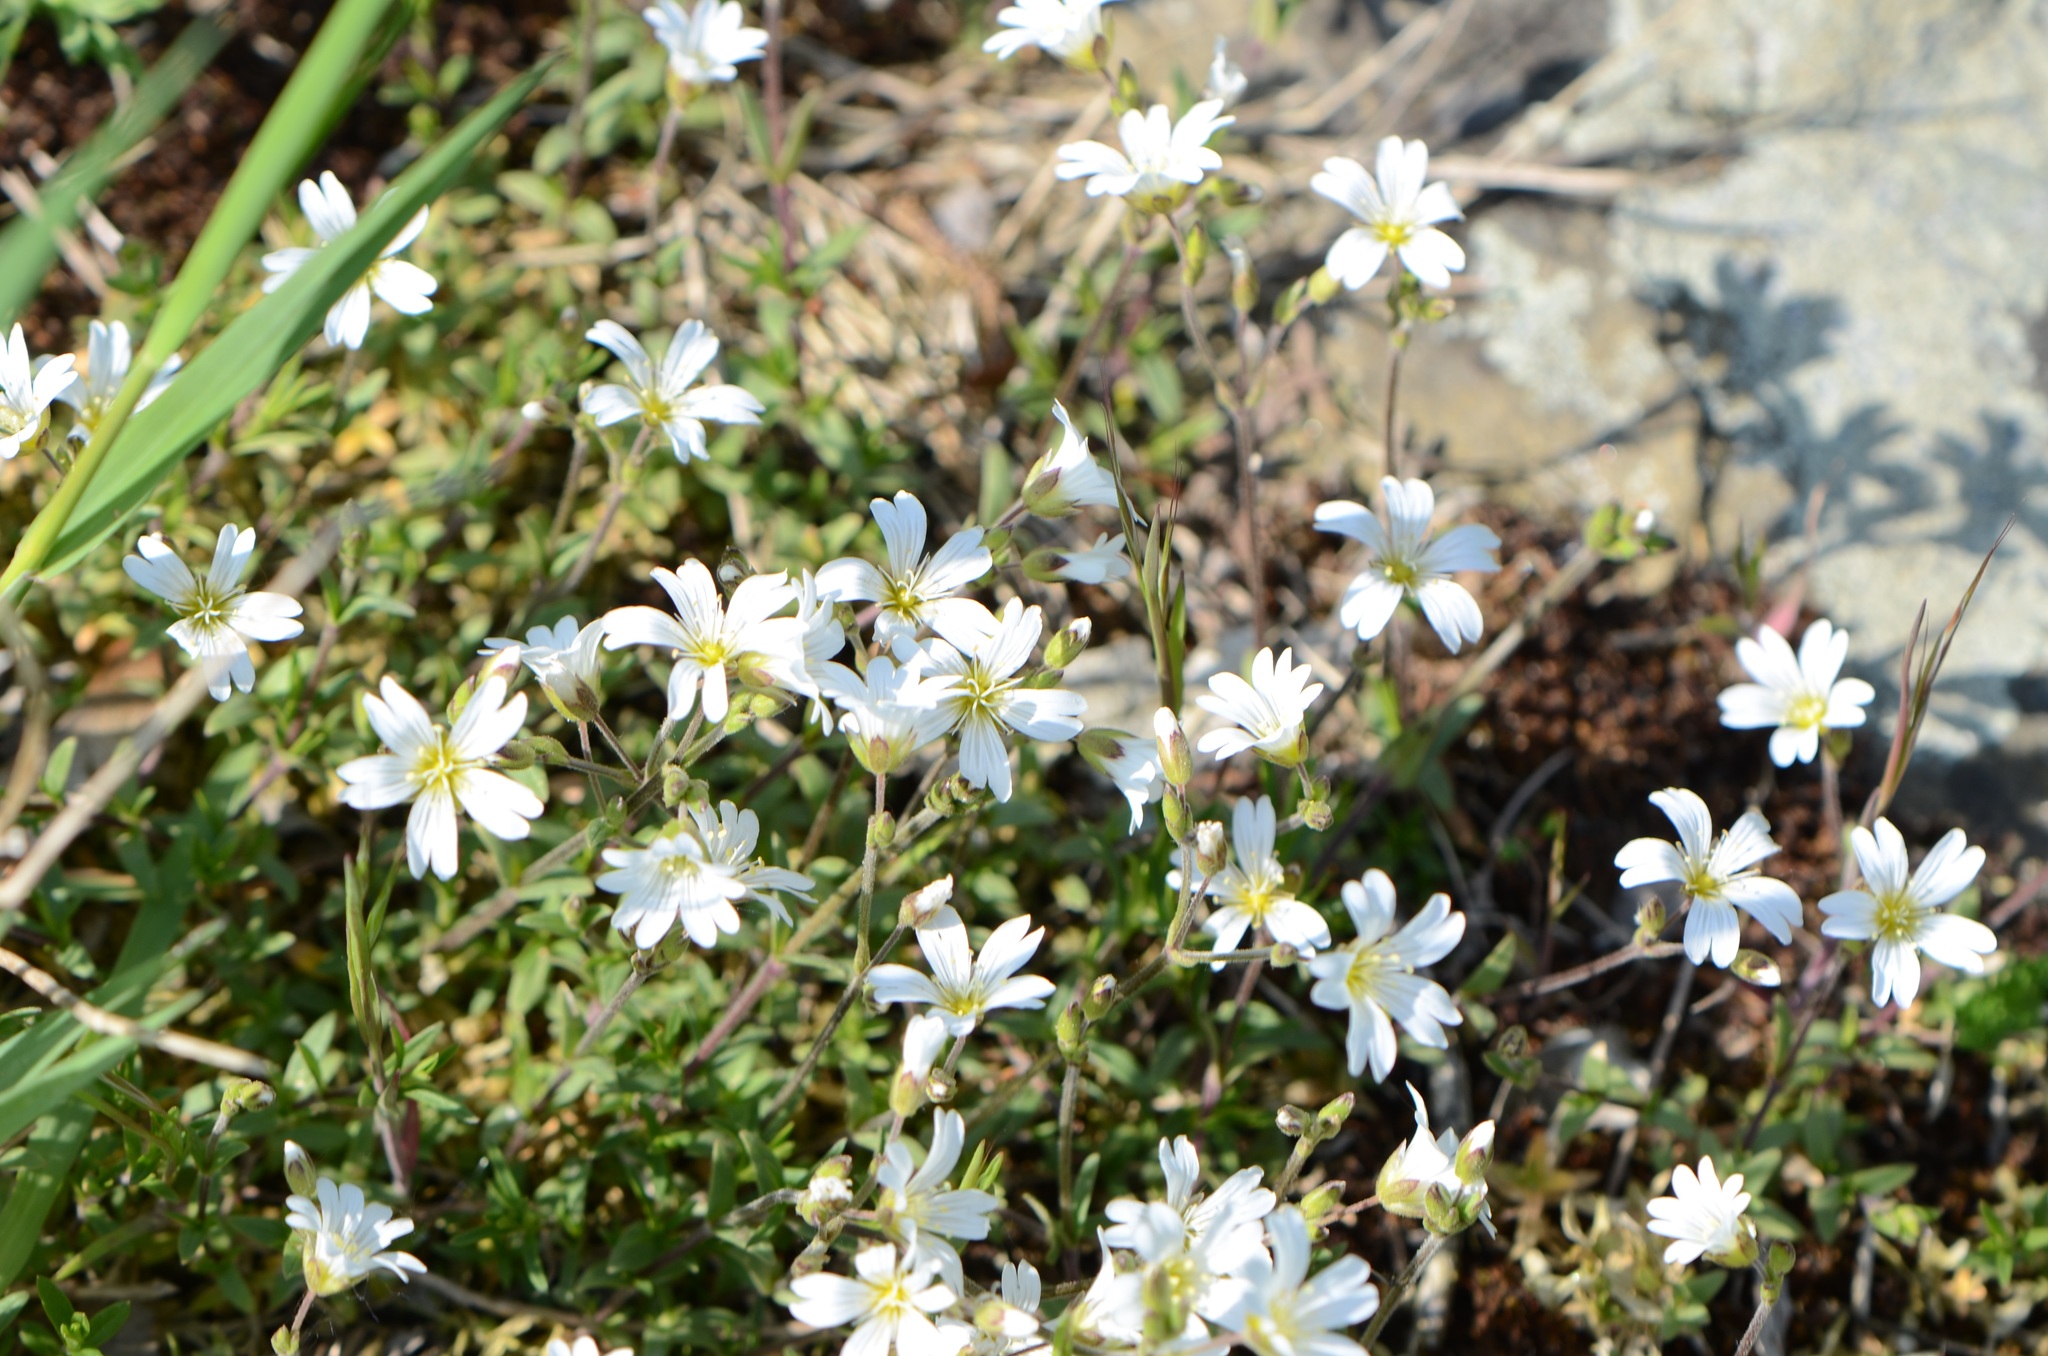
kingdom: Plantae
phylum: Tracheophyta
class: Magnoliopsida
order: Caryophyllales
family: Caryophyllaceae
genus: Cerastium
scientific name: Cerastium arvense
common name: Field mouse-ear
